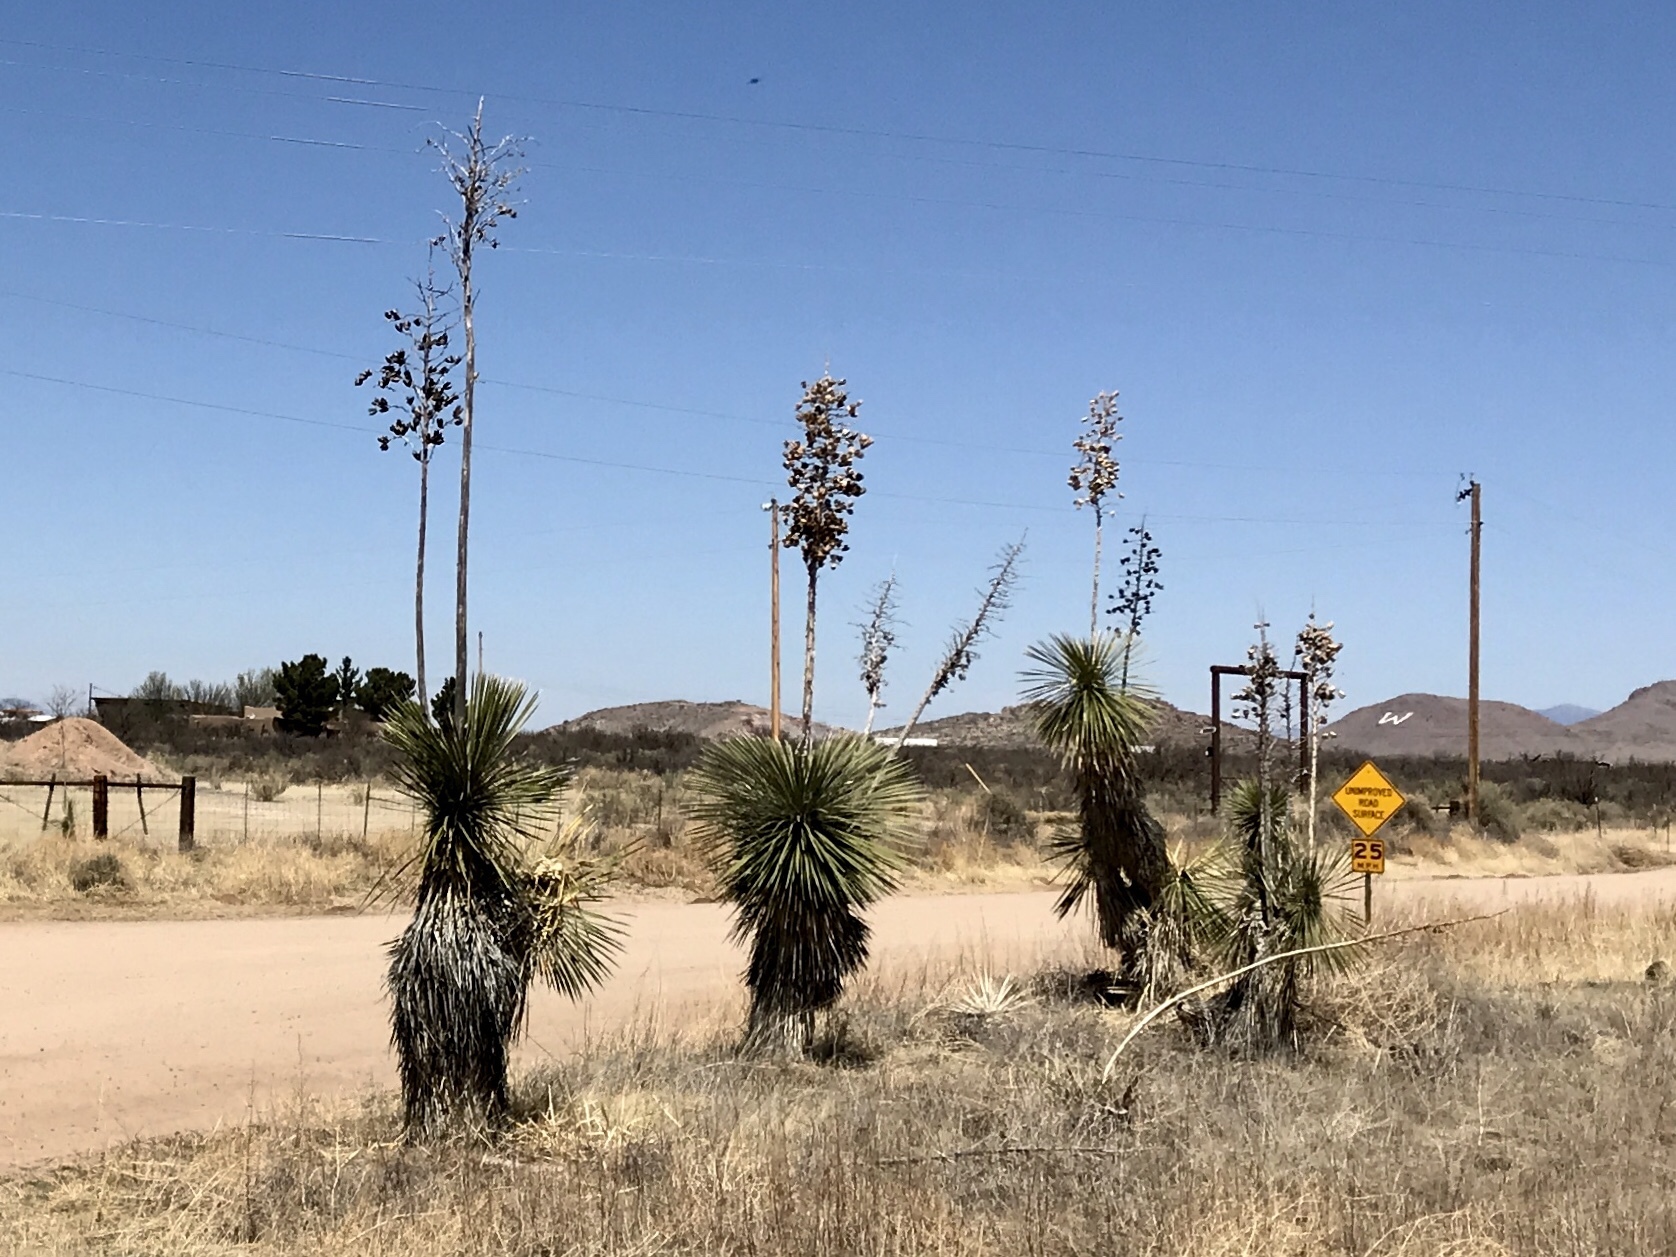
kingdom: Plantae
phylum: Tracheophyta
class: Liliopsida
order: Asparagales
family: Asparagaceae
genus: Yucca
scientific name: Yucca elata
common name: Palmella
